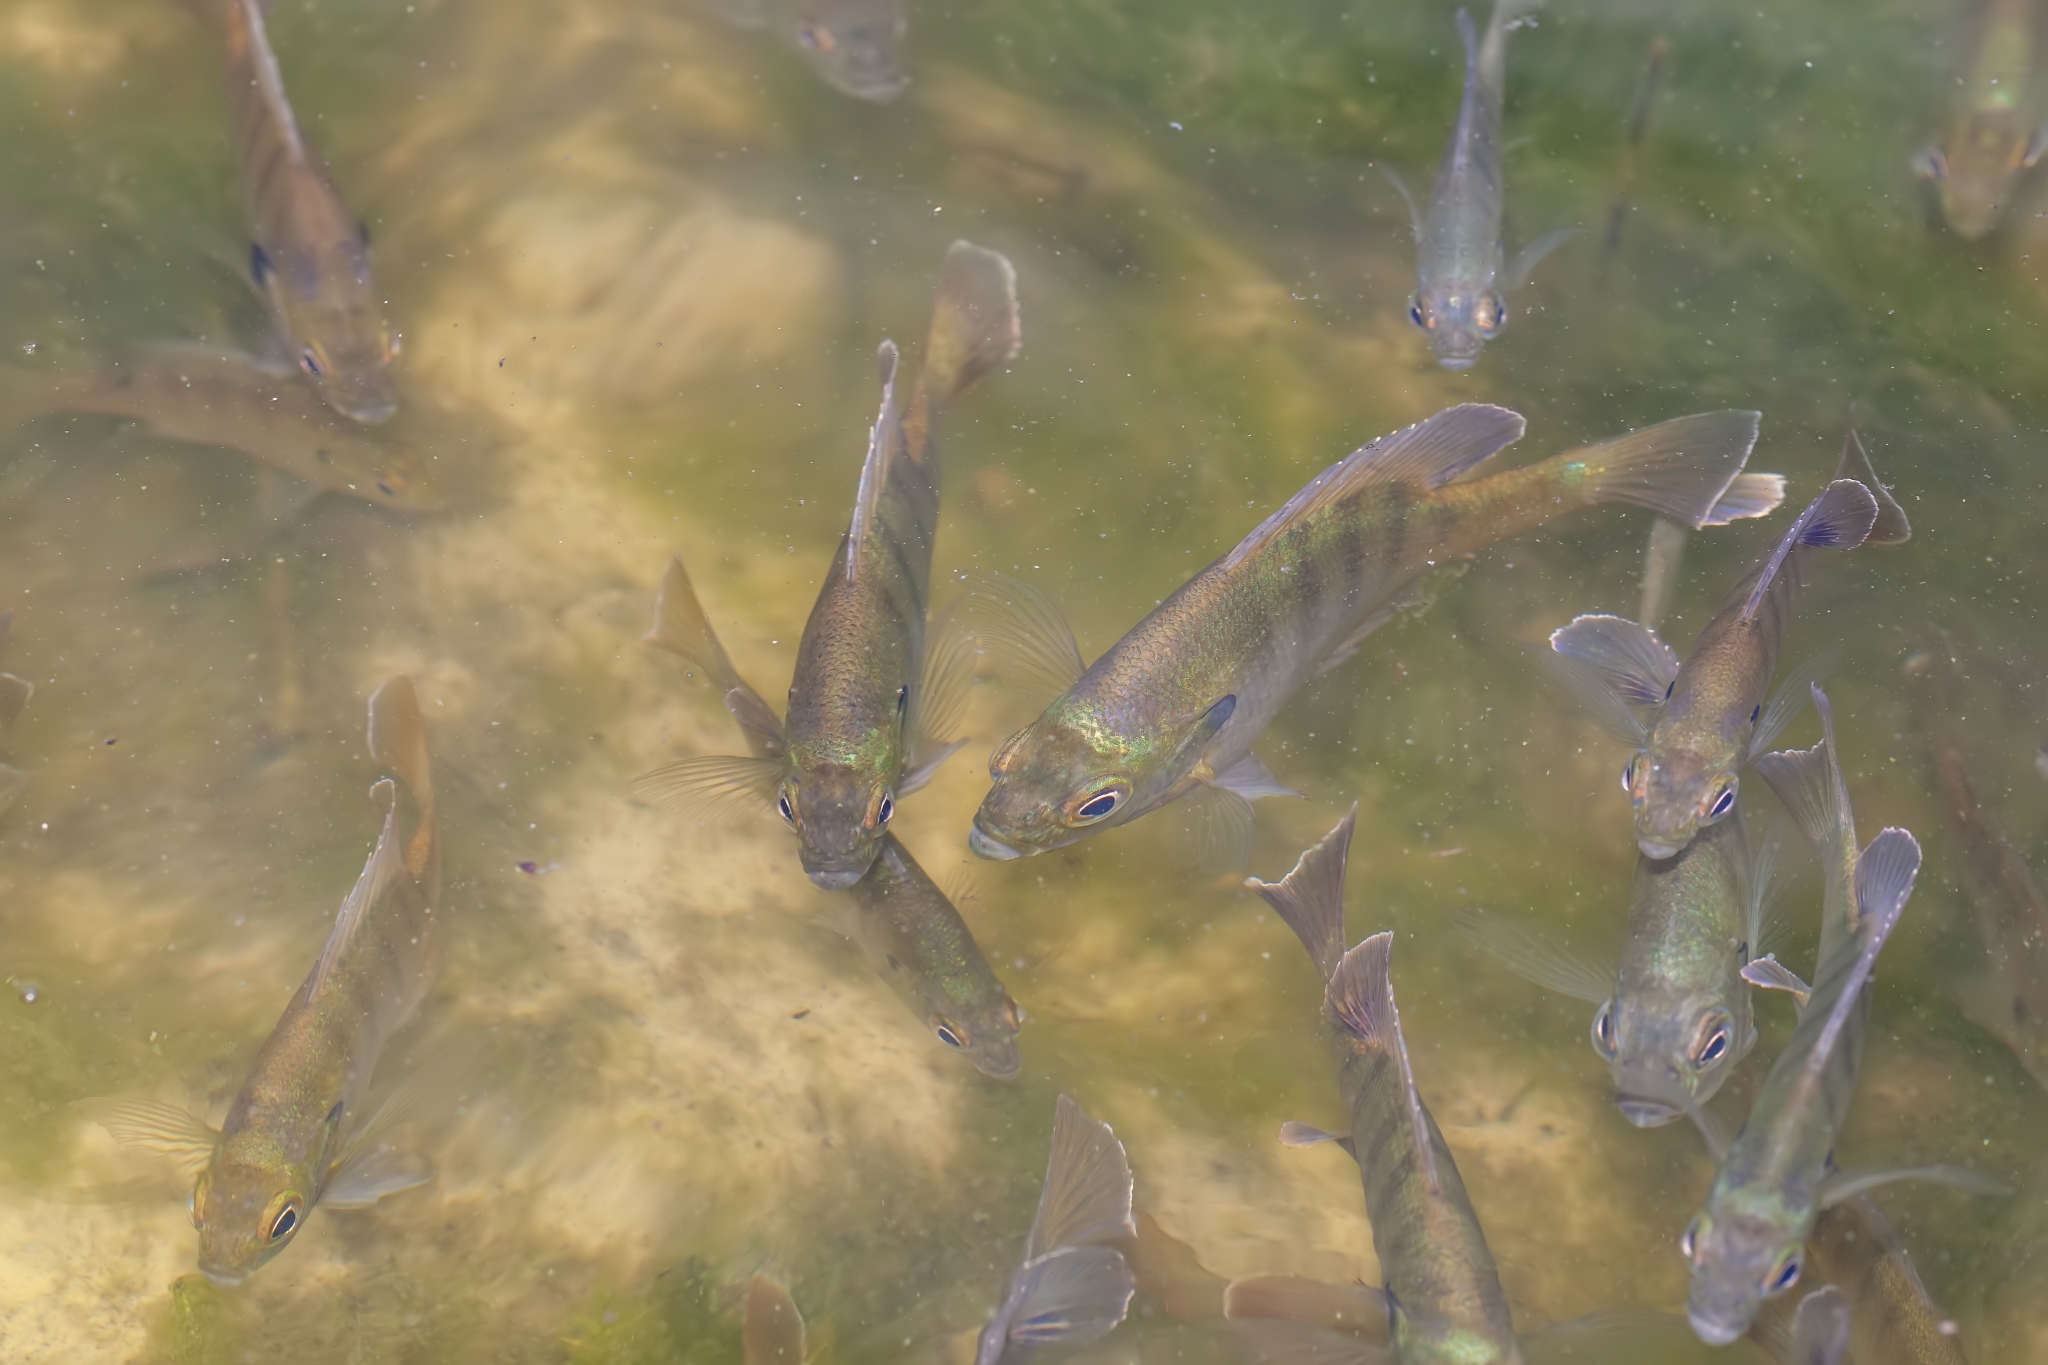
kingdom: Animalia
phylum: Chordata
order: Perciformes
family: Centrarchidae
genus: Lepomis
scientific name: Lepomis macrochirus
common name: Bluegill
